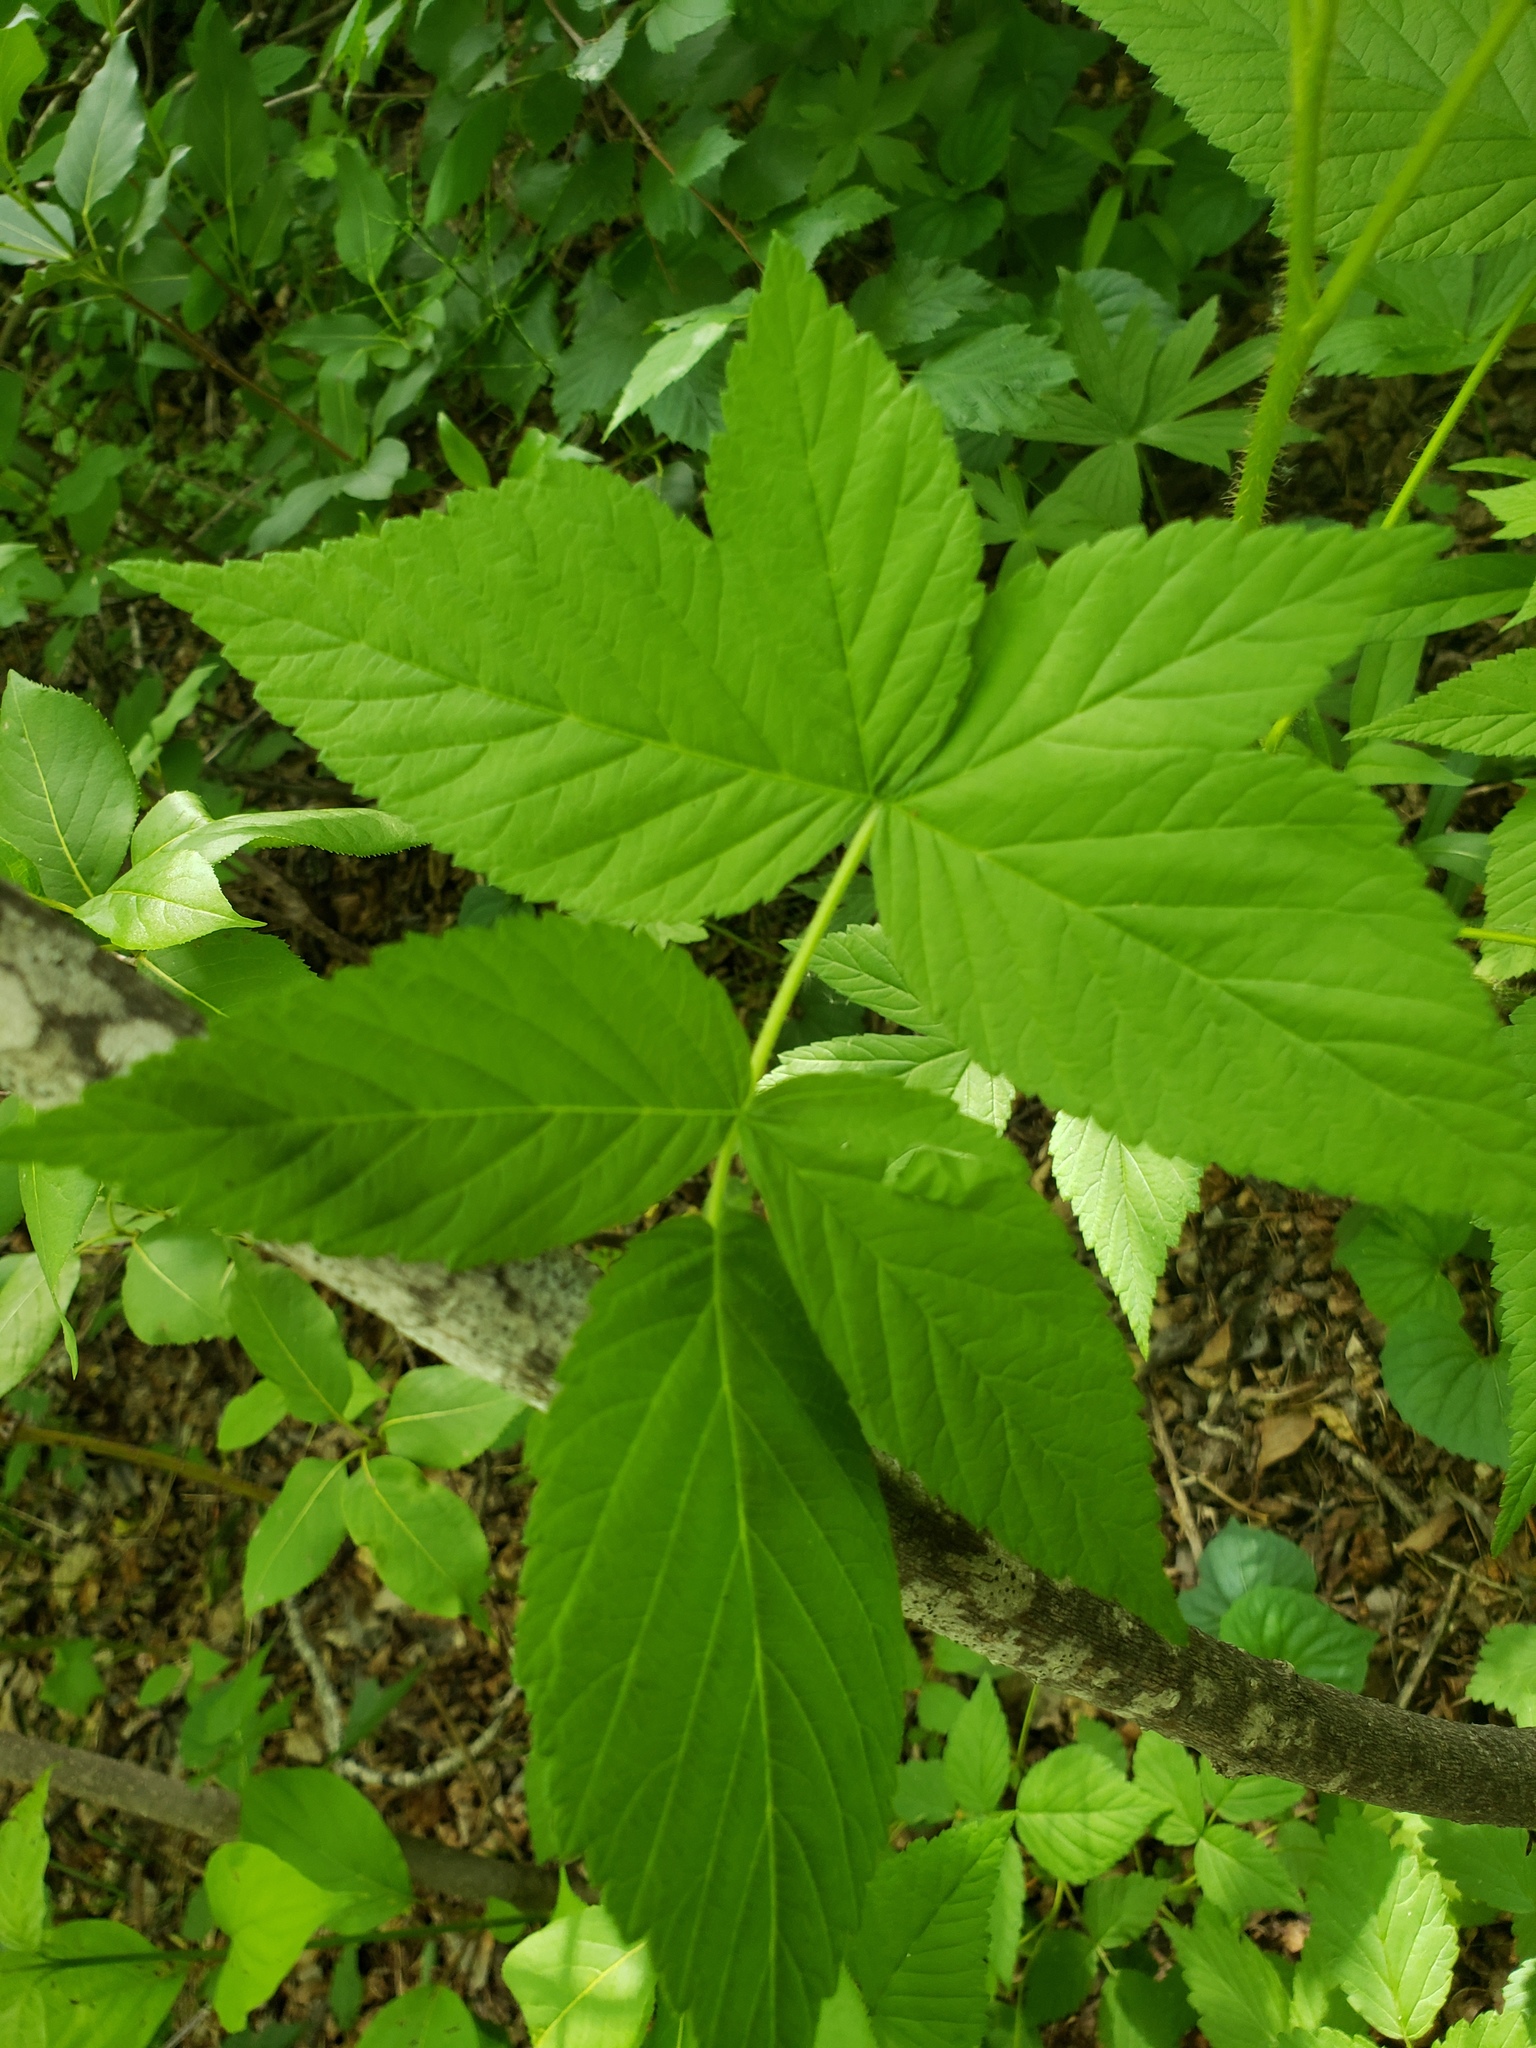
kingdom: Plantae
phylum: Tracheophyta
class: Magnoliopsida
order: Rosales
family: Rosaceae
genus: Rubus
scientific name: Rubus idaeus
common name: Raspberry
